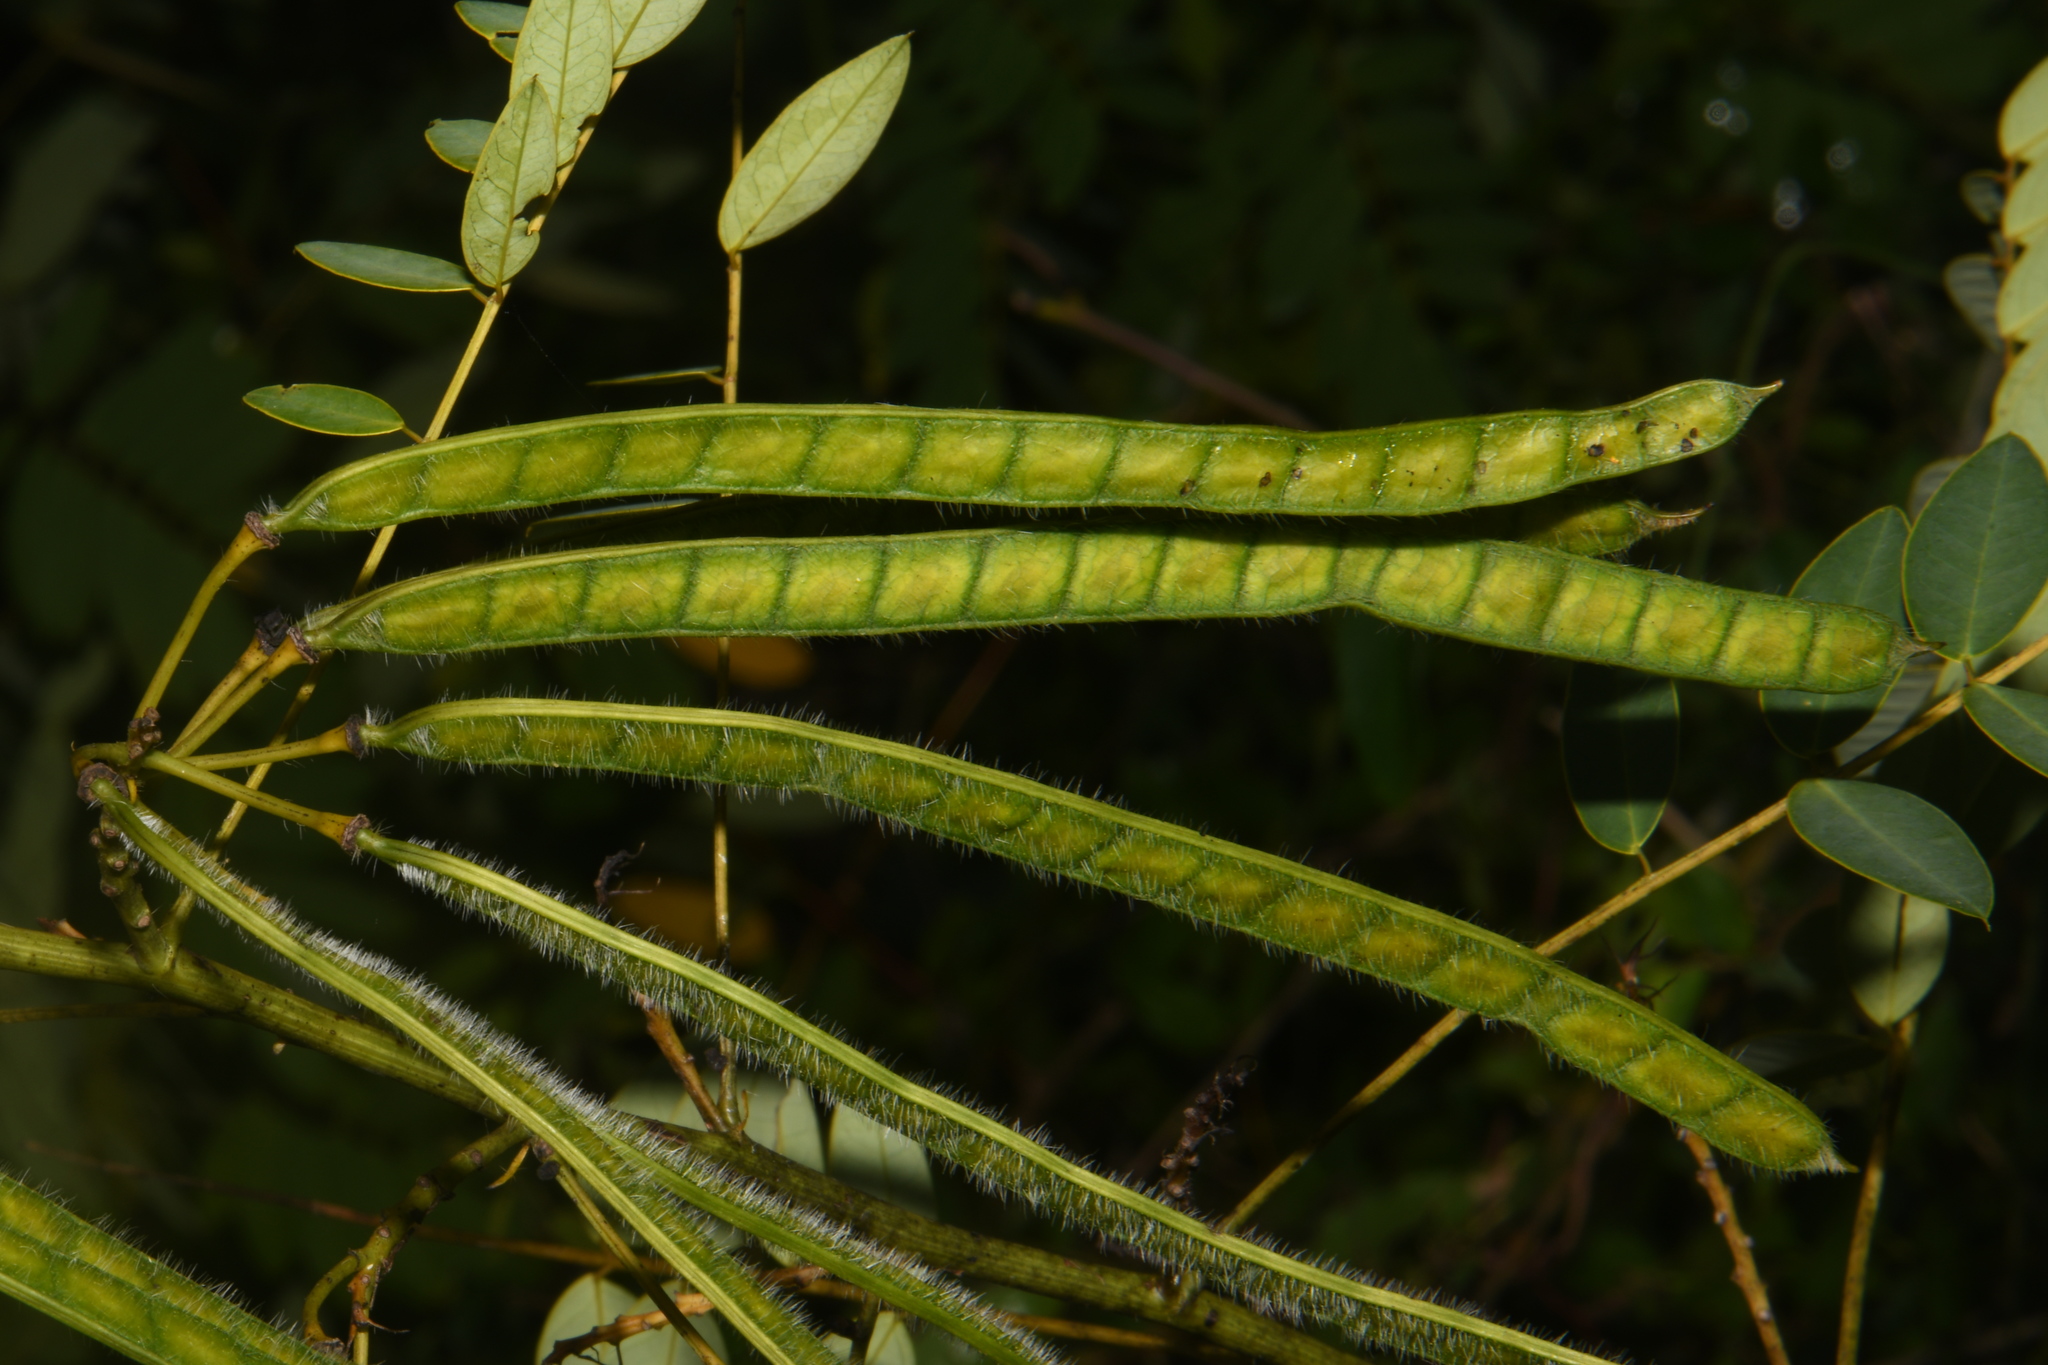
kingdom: Plantae
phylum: Tracheophyta
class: Magnoliopsida
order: Fabales
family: Fabaceae
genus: Senna
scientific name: Senna hebecarpa
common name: Wild senna
